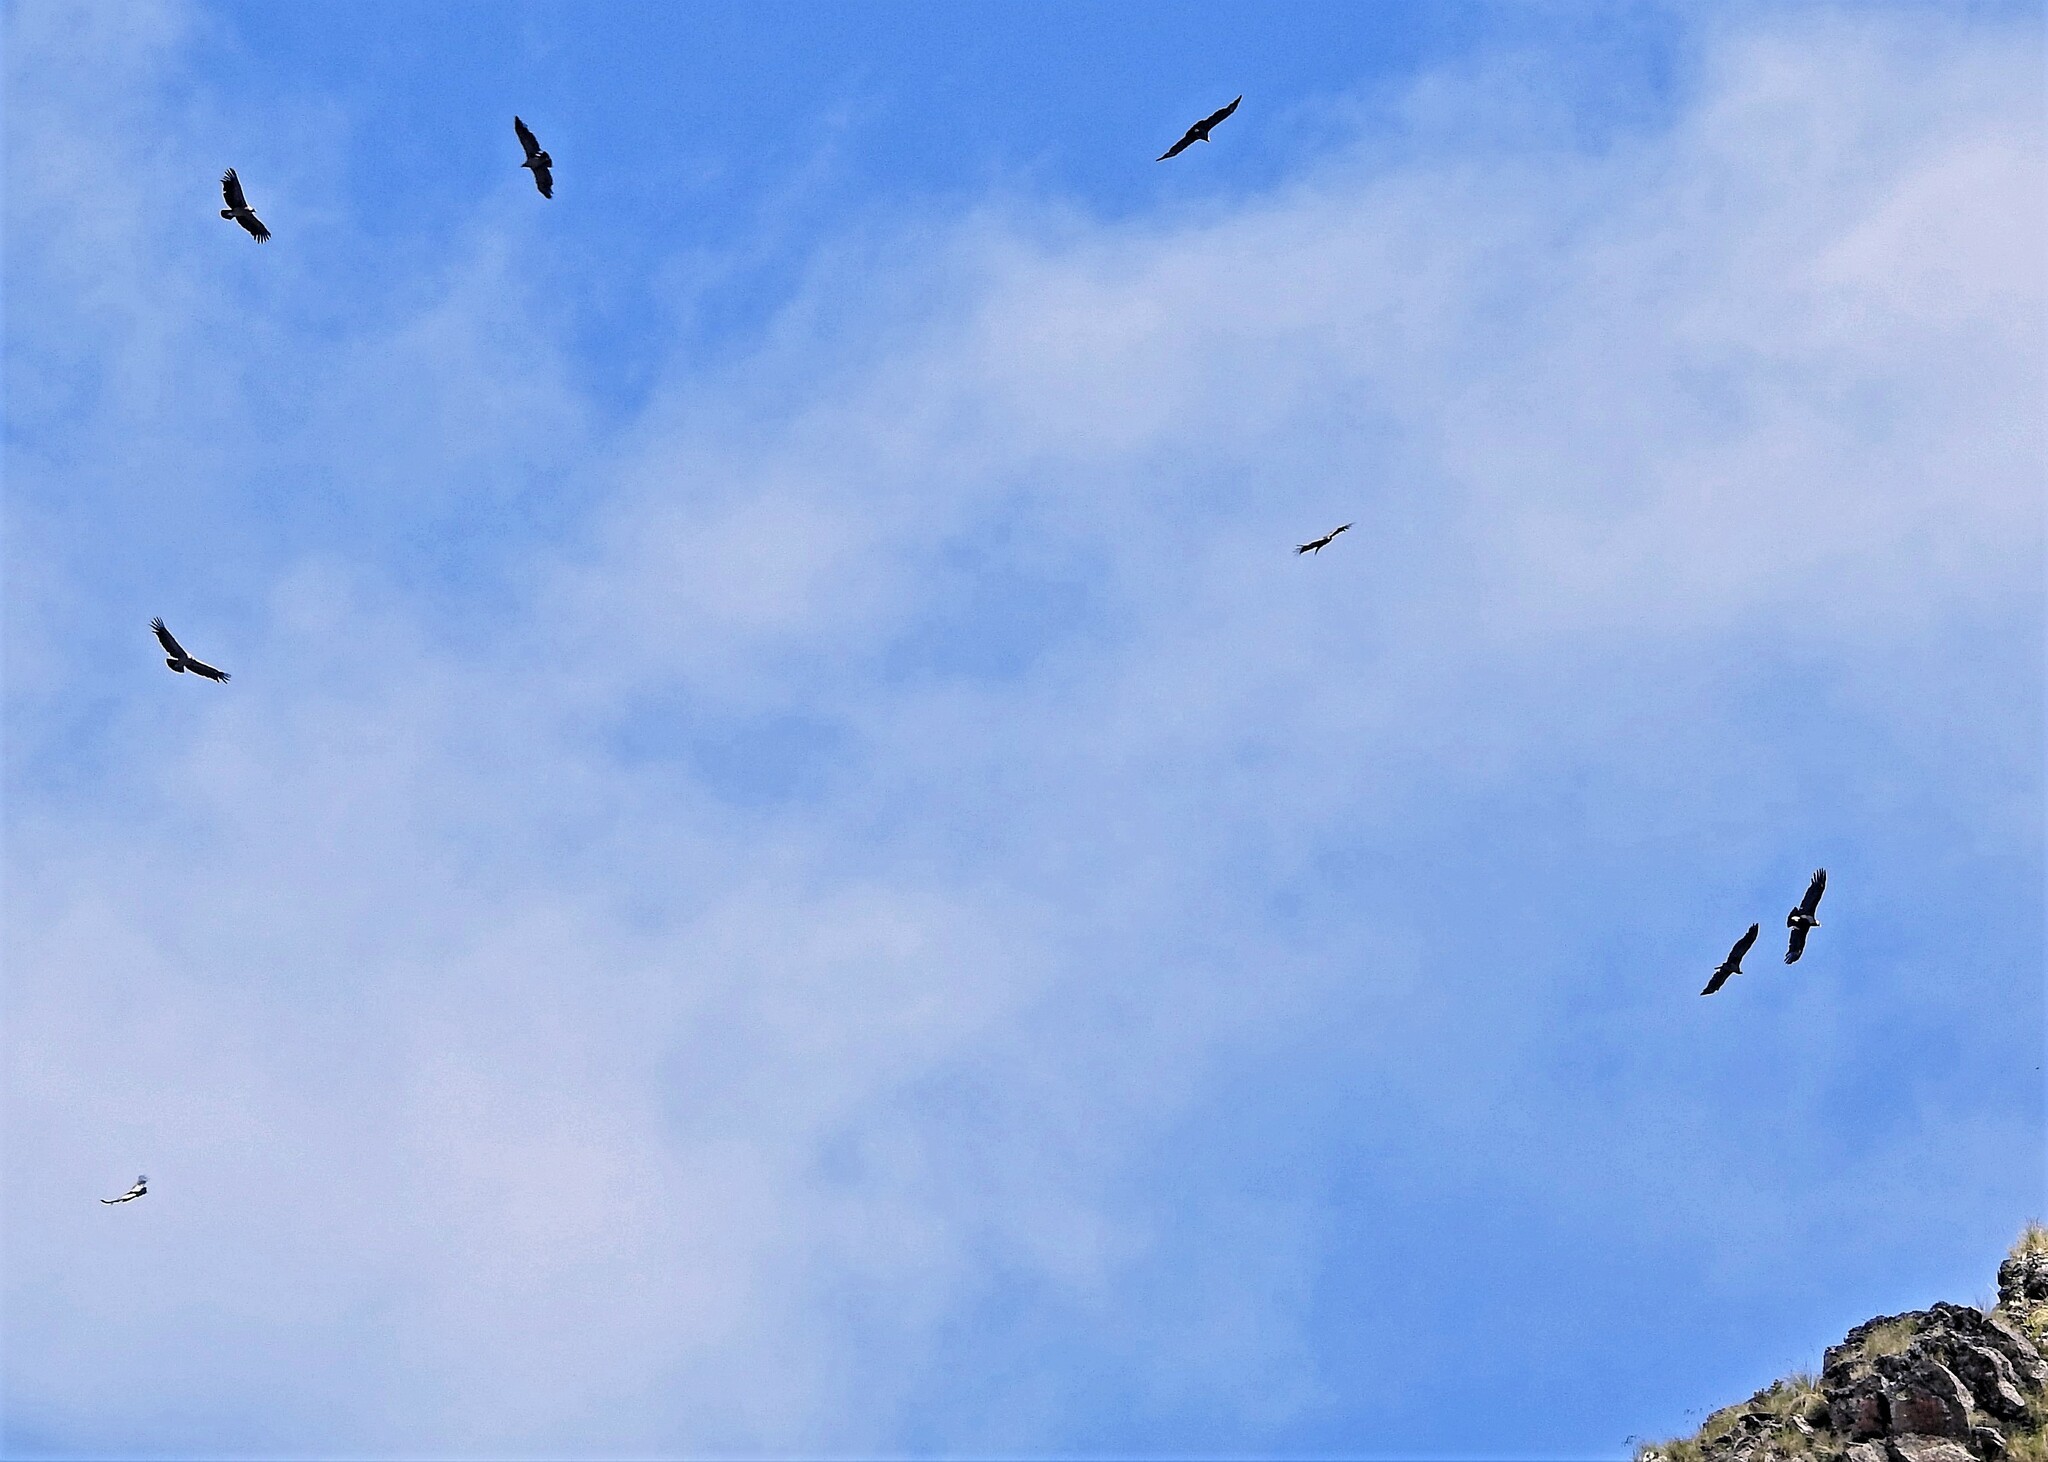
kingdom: Animalia
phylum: Chordata
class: Aves
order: Accipitriformes
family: Cathartidae
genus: Vultur
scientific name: Vultur gryphus
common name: Andean condor
